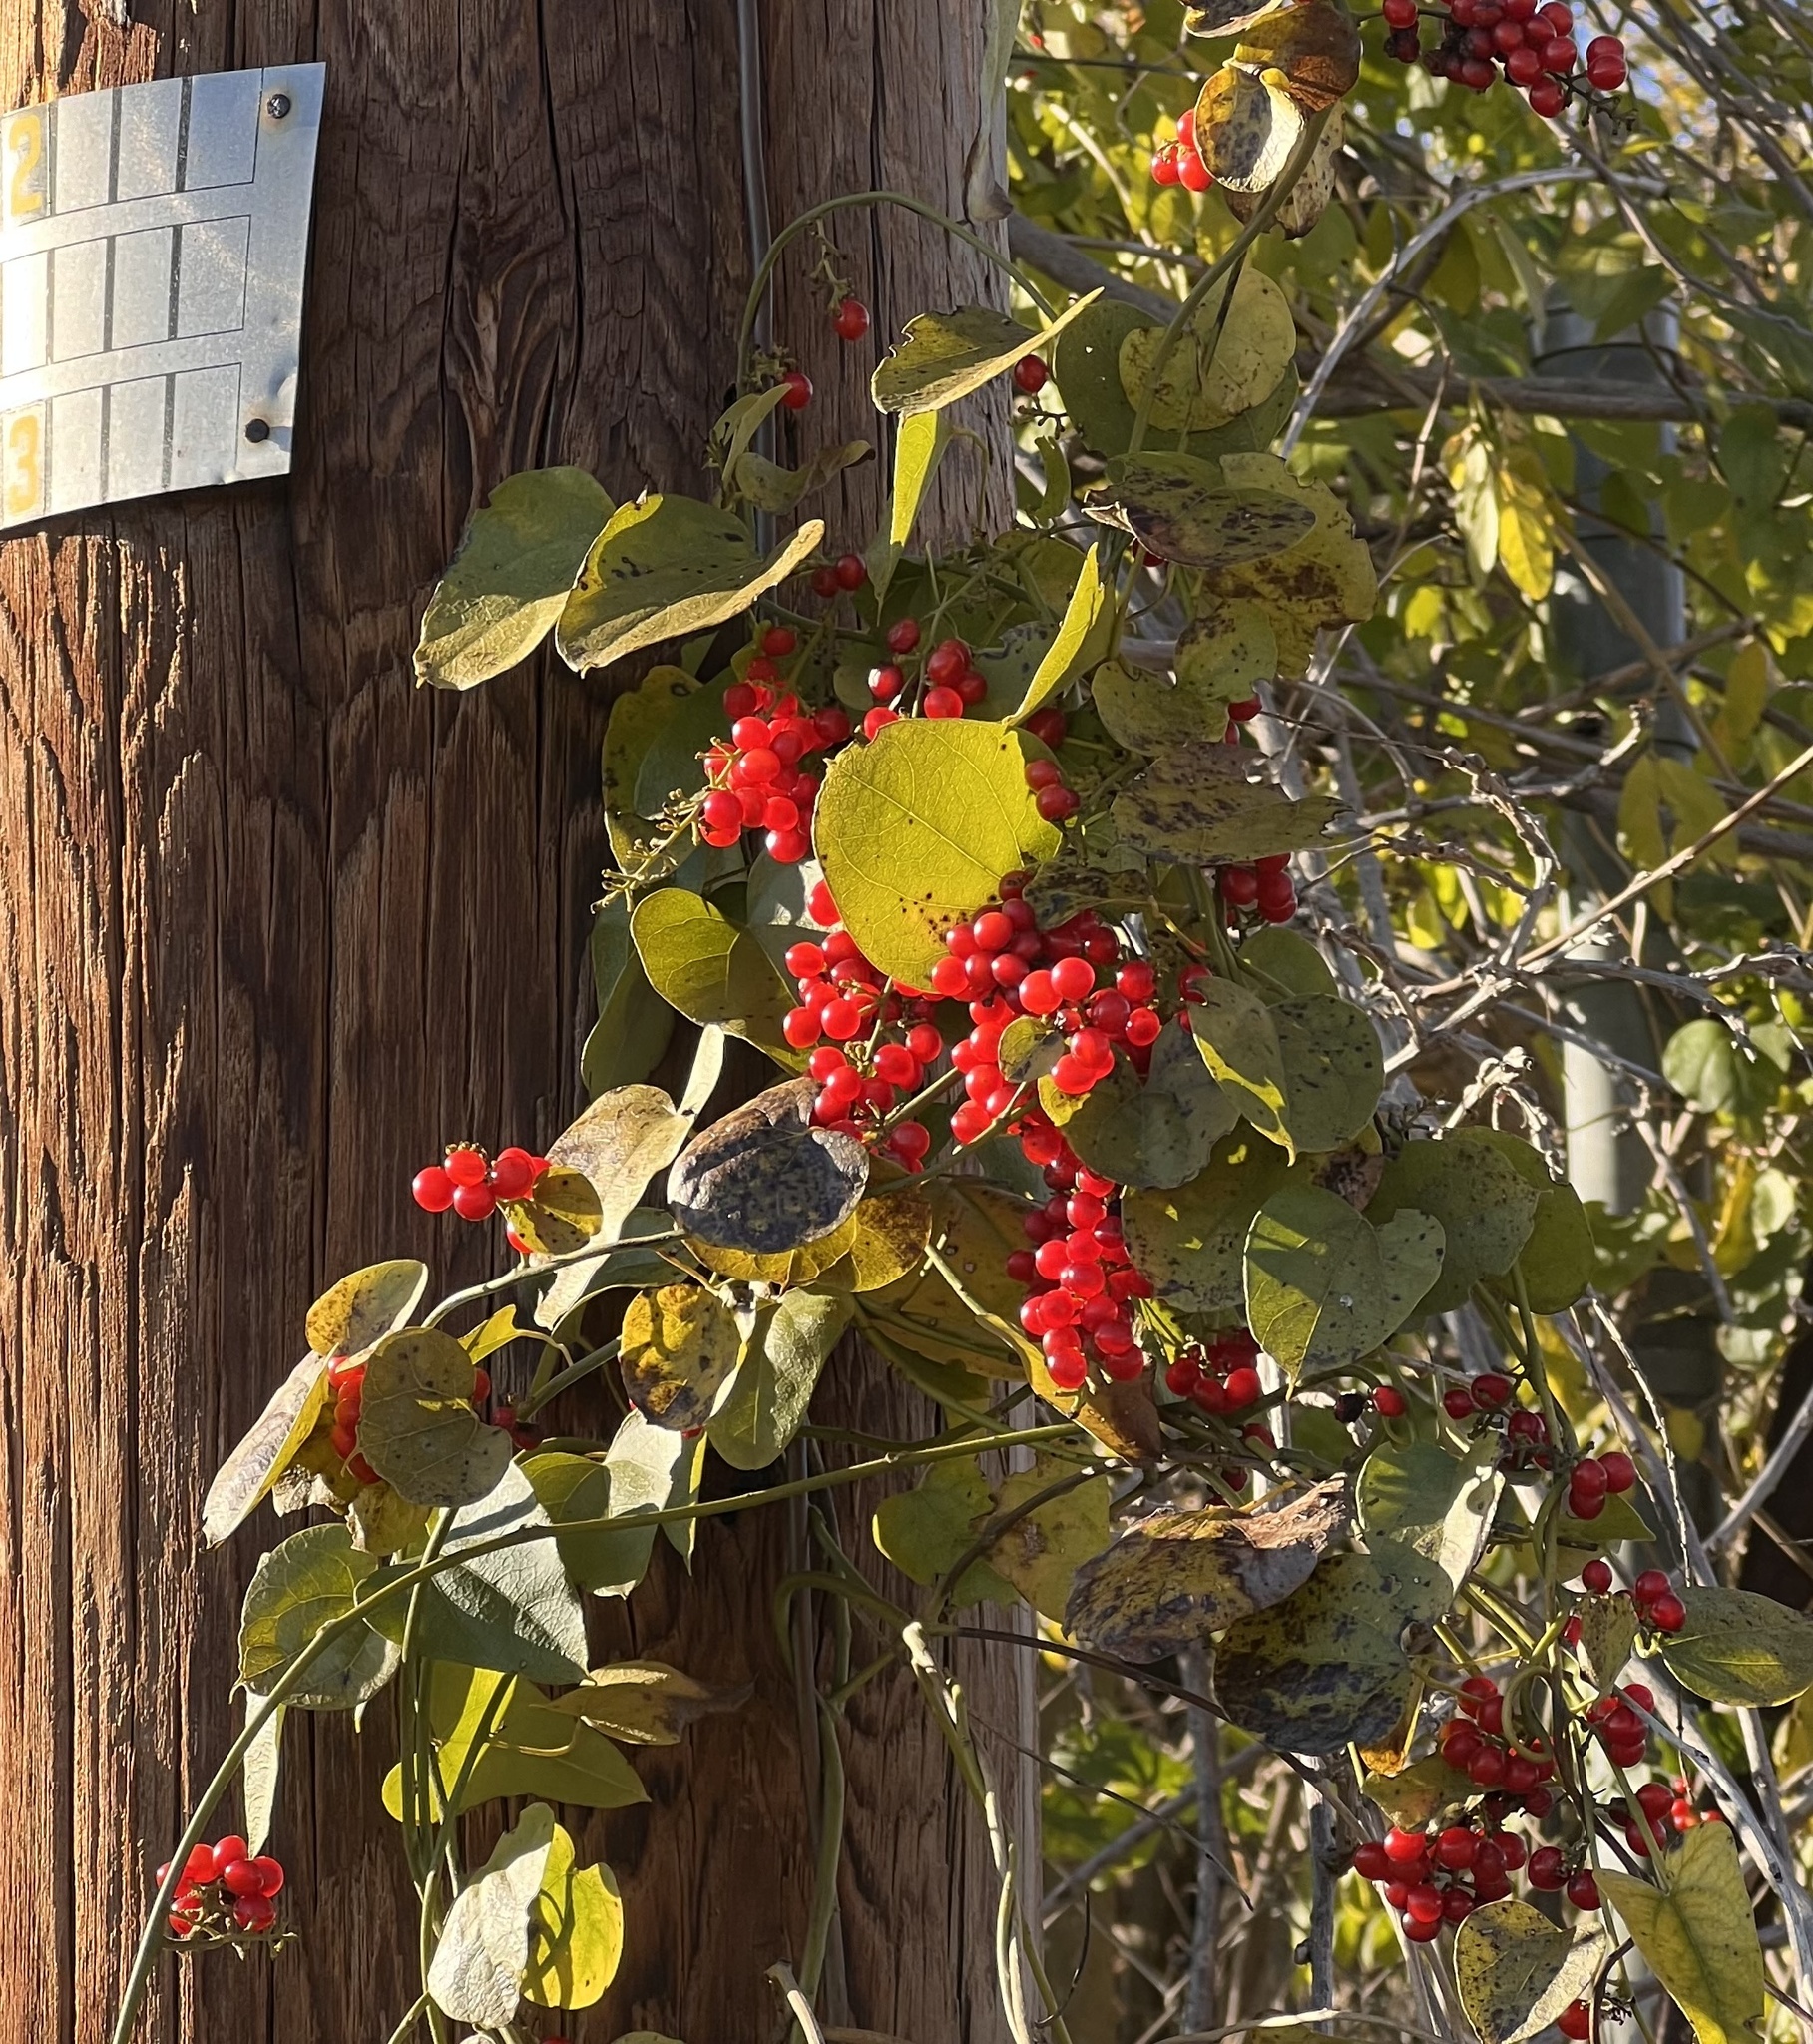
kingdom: Plantae
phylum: Tracheophyta
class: Magnoliopsida
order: Ranunculales
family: Menispermaceae
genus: Cocculus
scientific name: Cocculus carolinus
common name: Carolina moonseed
